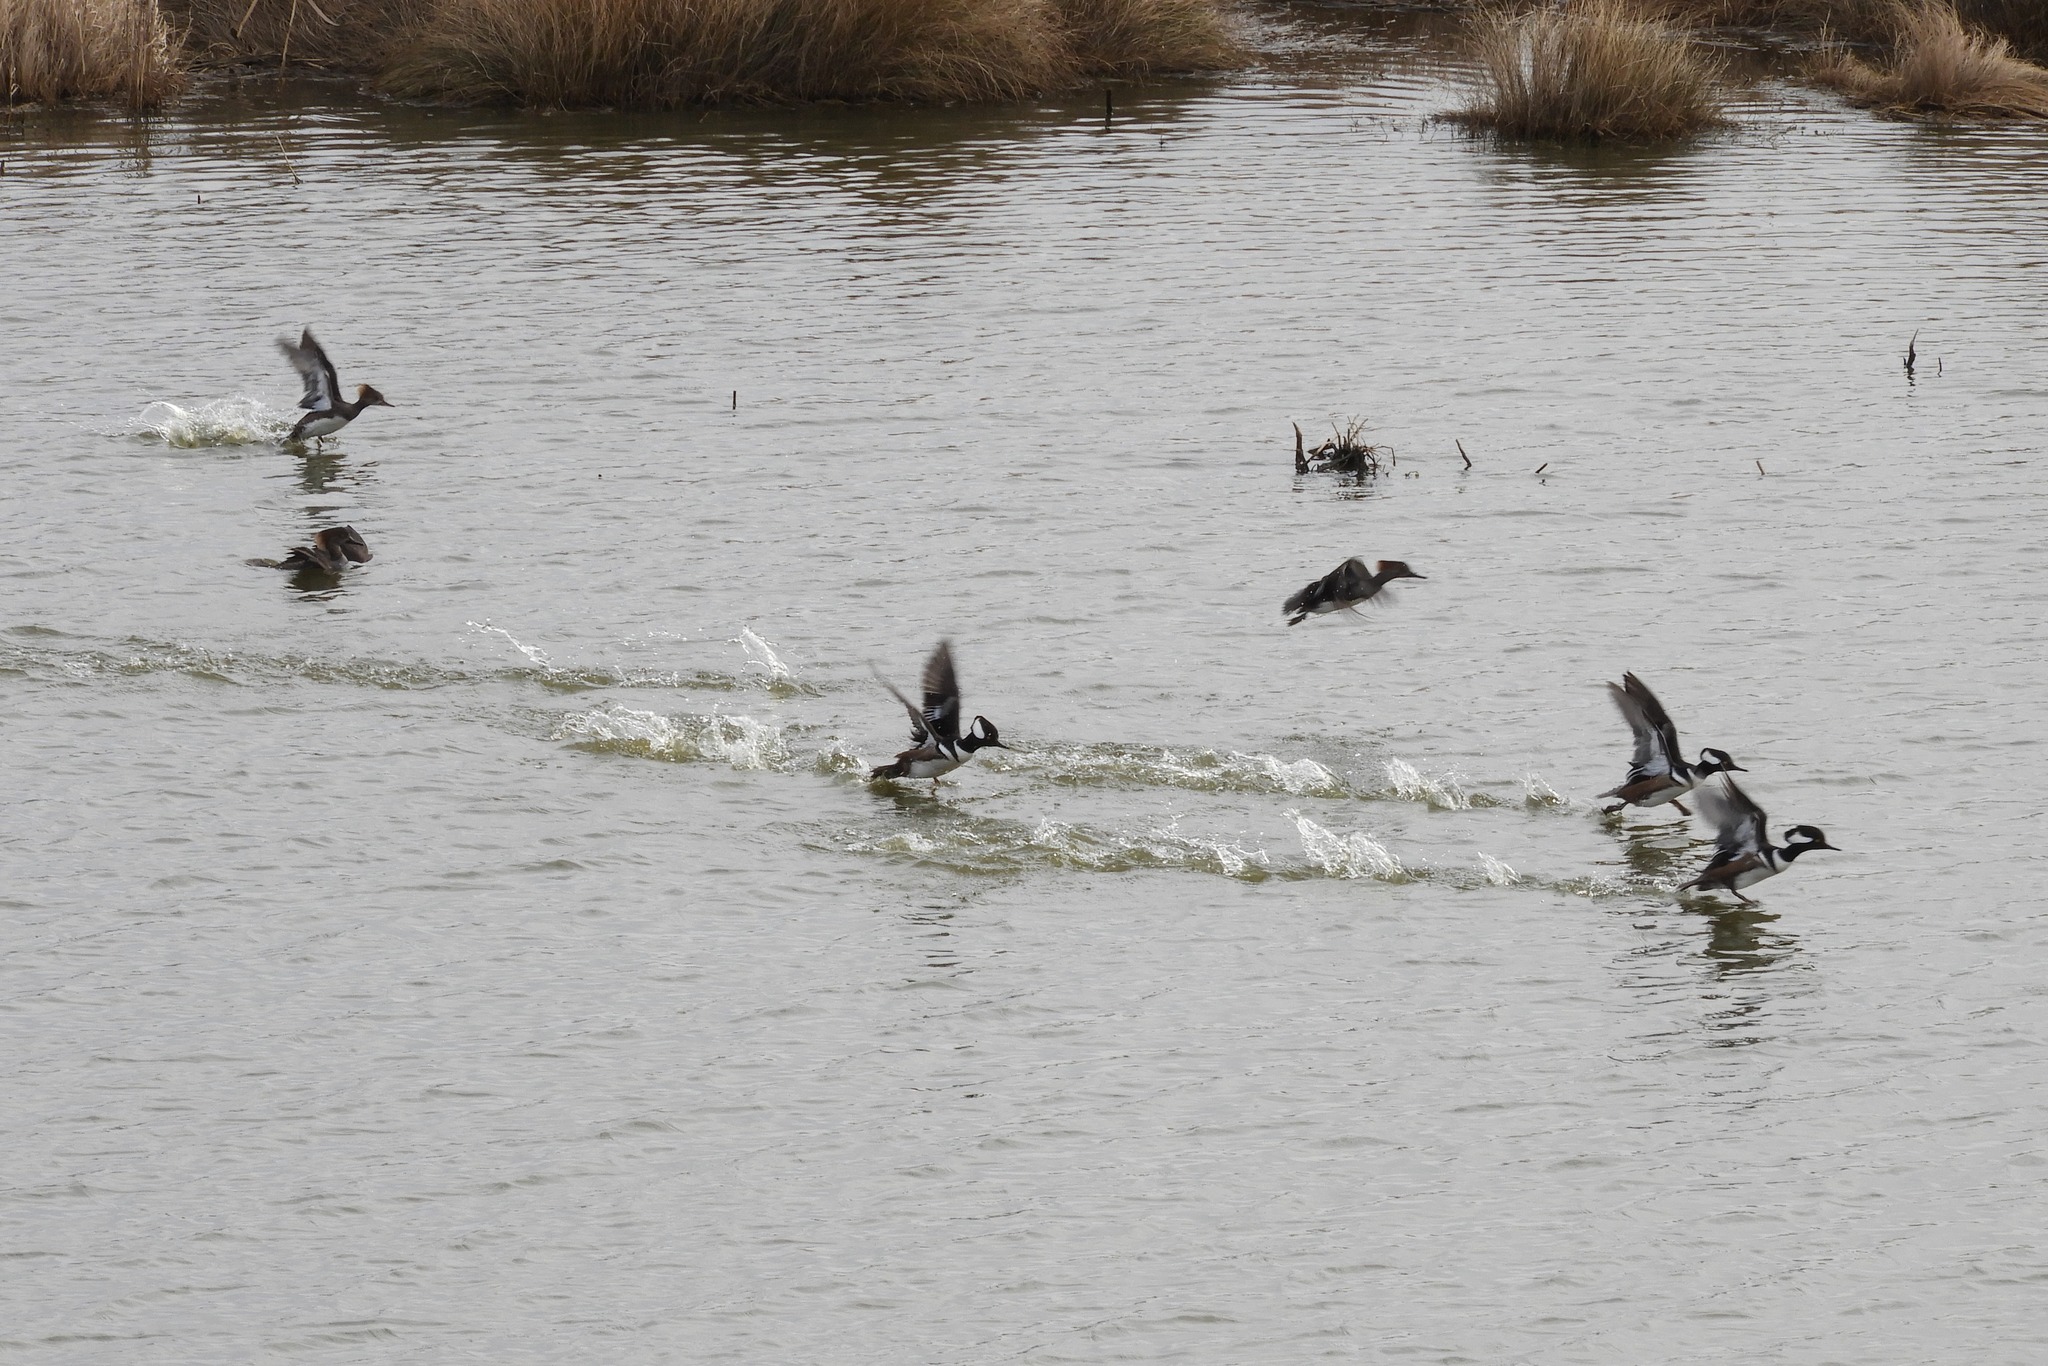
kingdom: Animalia
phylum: Chordata
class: Aves
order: Anseriformes
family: Anatidae
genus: Lophodytes
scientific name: Lophodytes cucullatus
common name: Hooded merganser
